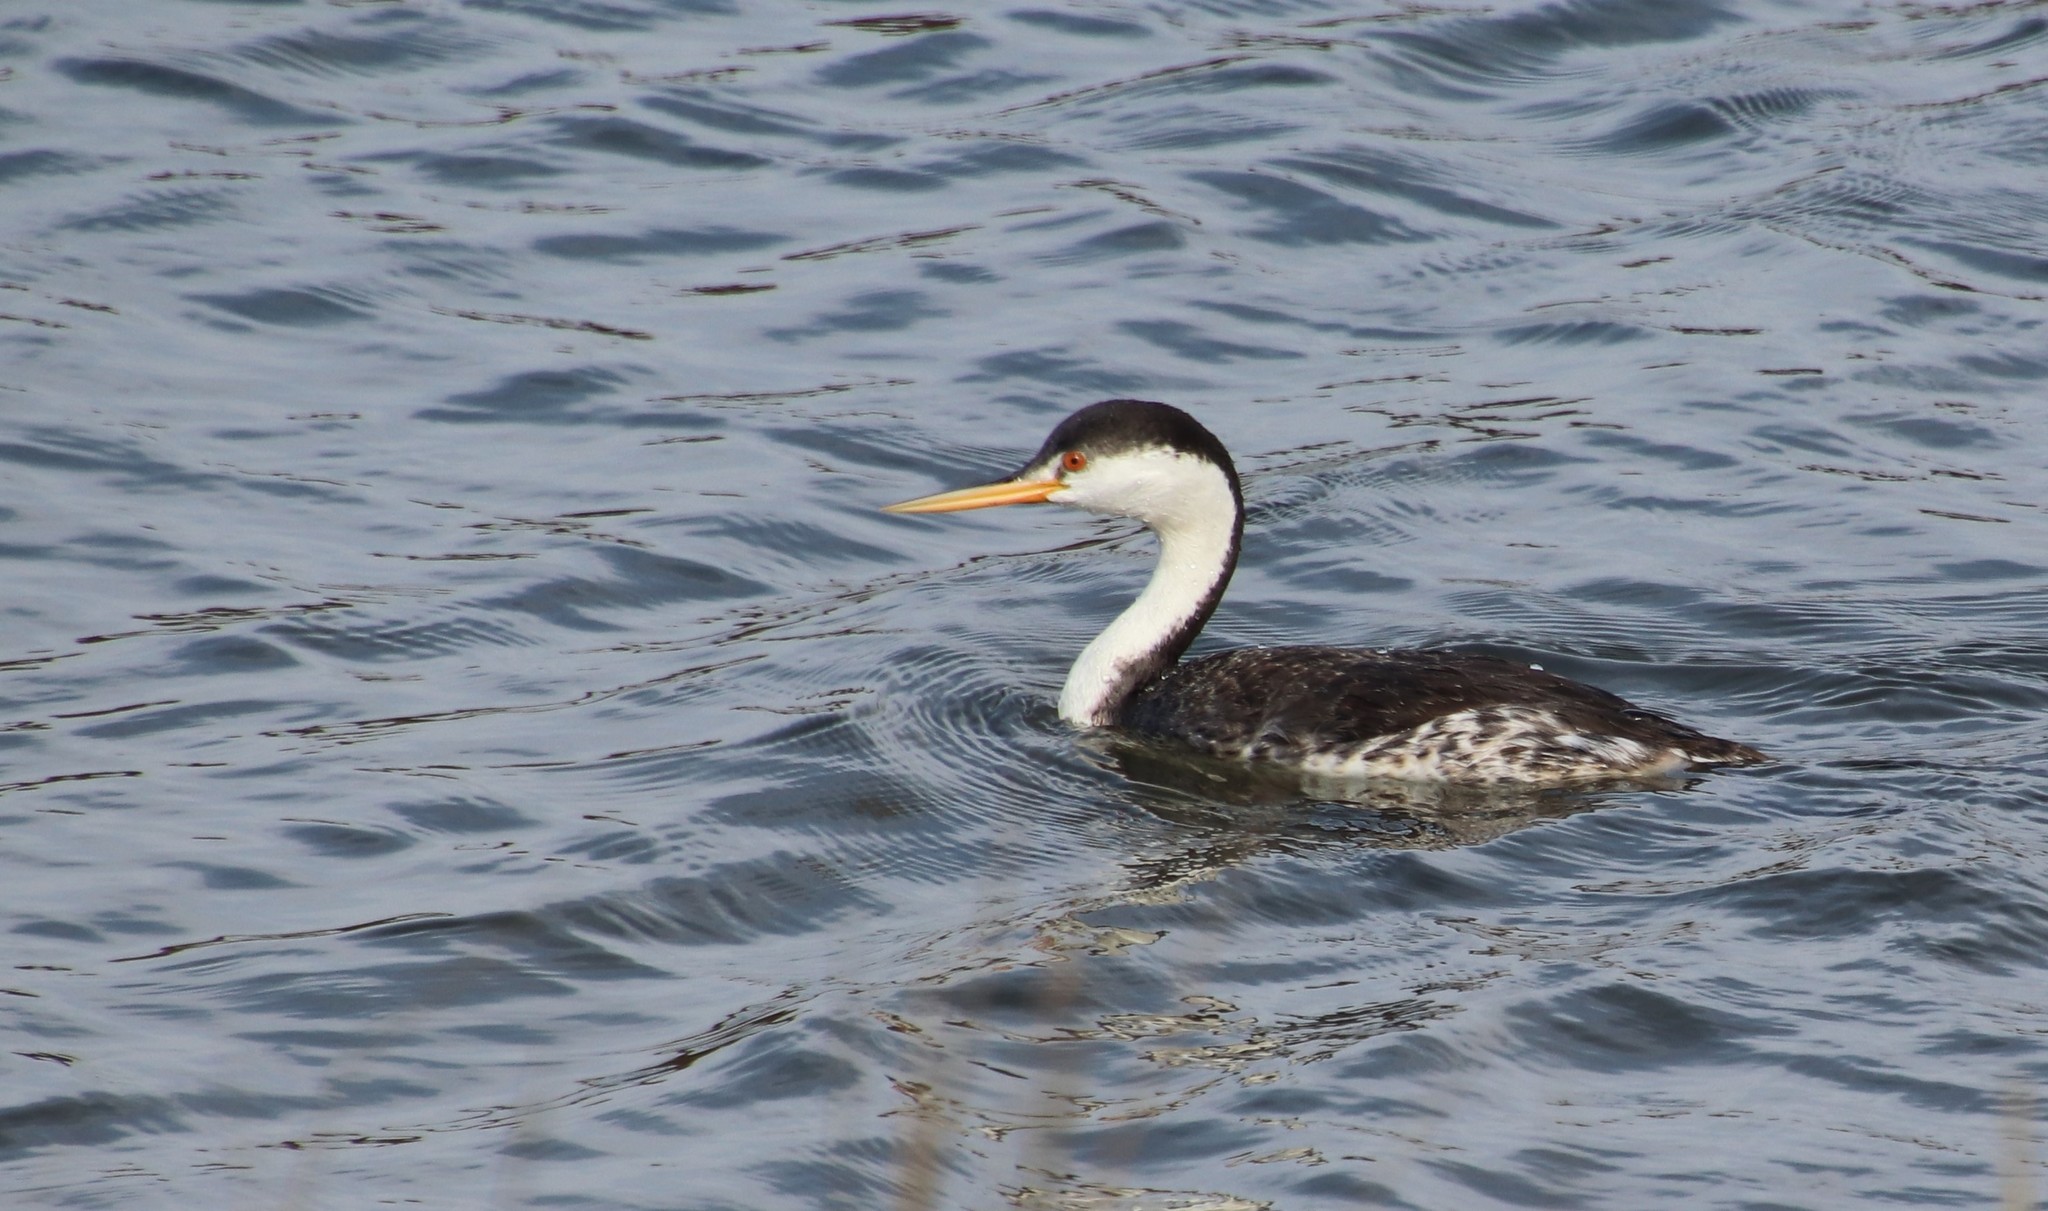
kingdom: Animalia
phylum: Chordata
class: Aves
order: Podicipediformes
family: Podicipedidae
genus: Aechmophorus
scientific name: Aechmophorus clarkii
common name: Clark's grebe
